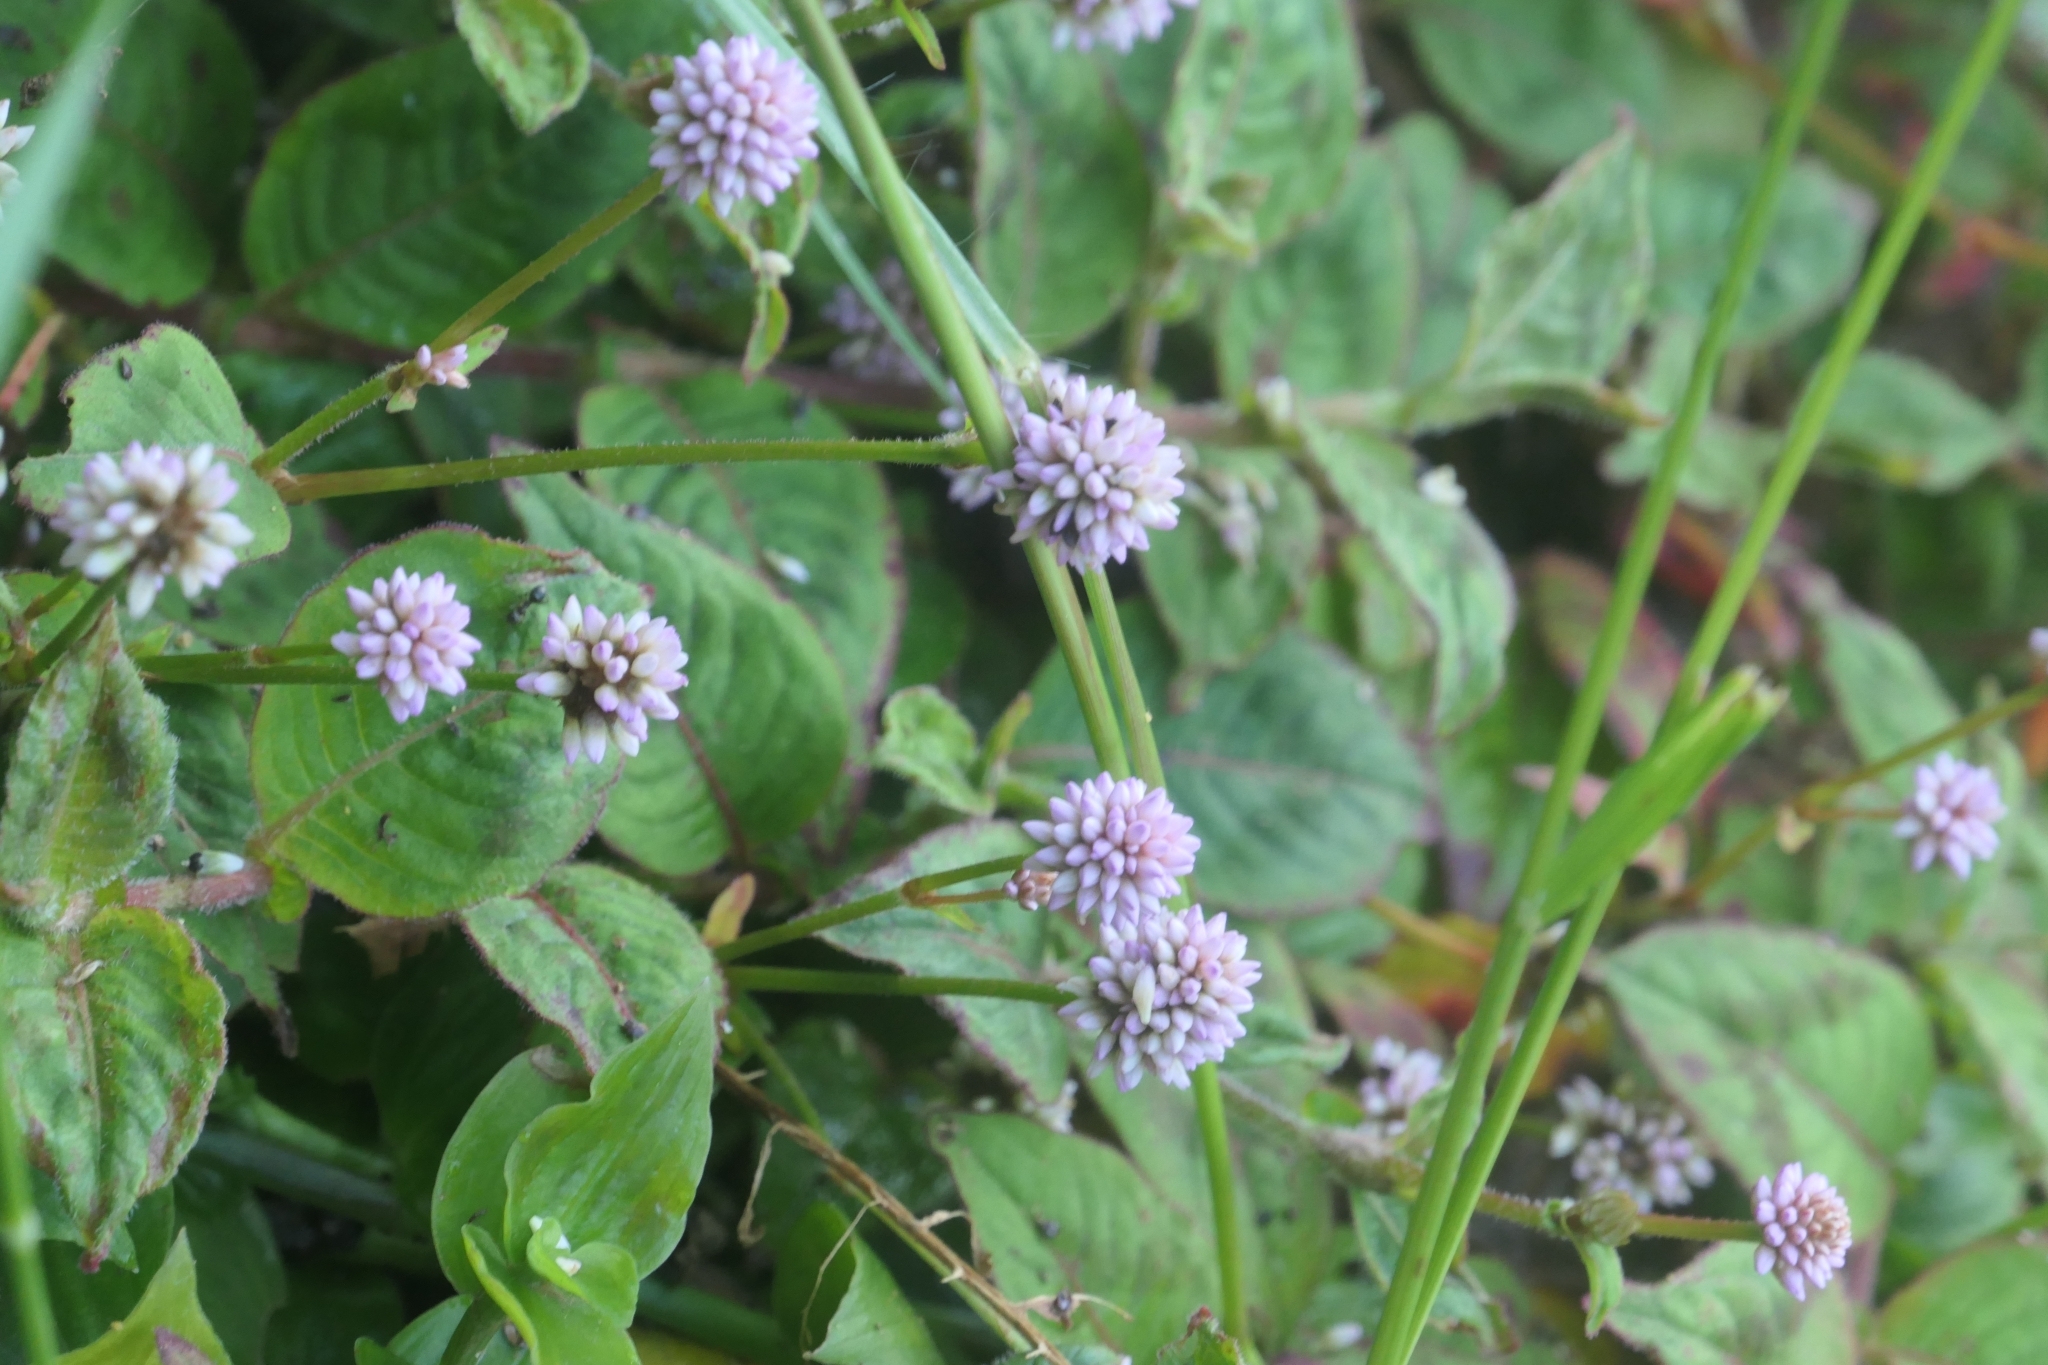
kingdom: Plantae
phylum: Tracheophyta
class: Magnoliopsida
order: Caryophyllales
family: Polygonaceae
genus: Persicaria
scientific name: Persicaria capitata
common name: Pinkhead smartweed
